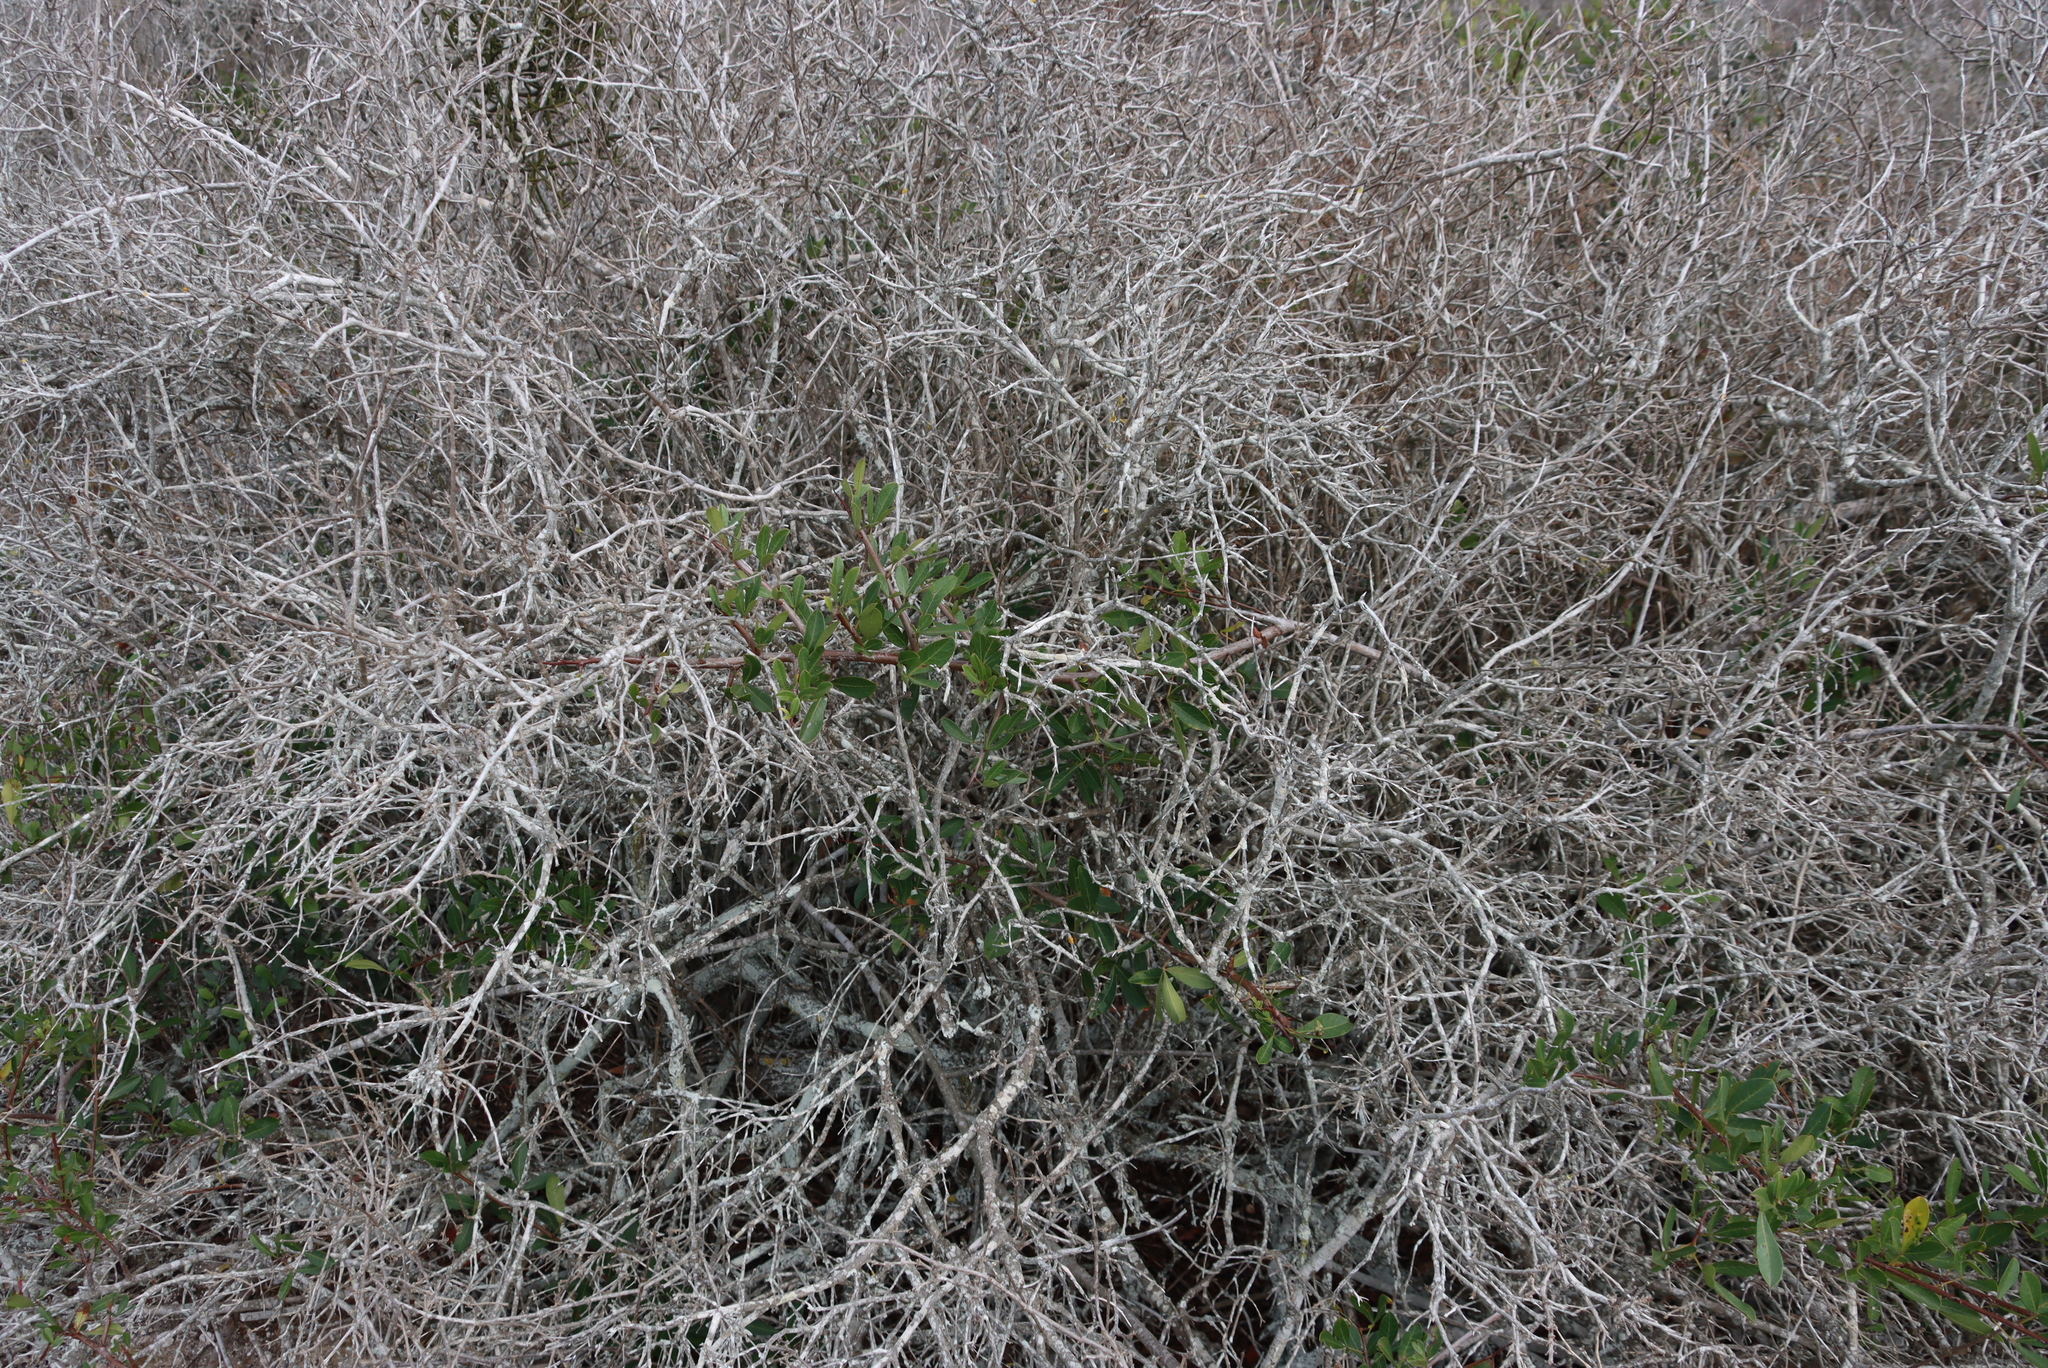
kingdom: Plantae
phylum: Tracheophyta
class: Magnoliopsida
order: Sapindales
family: Anacardiaceae
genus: Searsia
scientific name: Searsia laevigata
